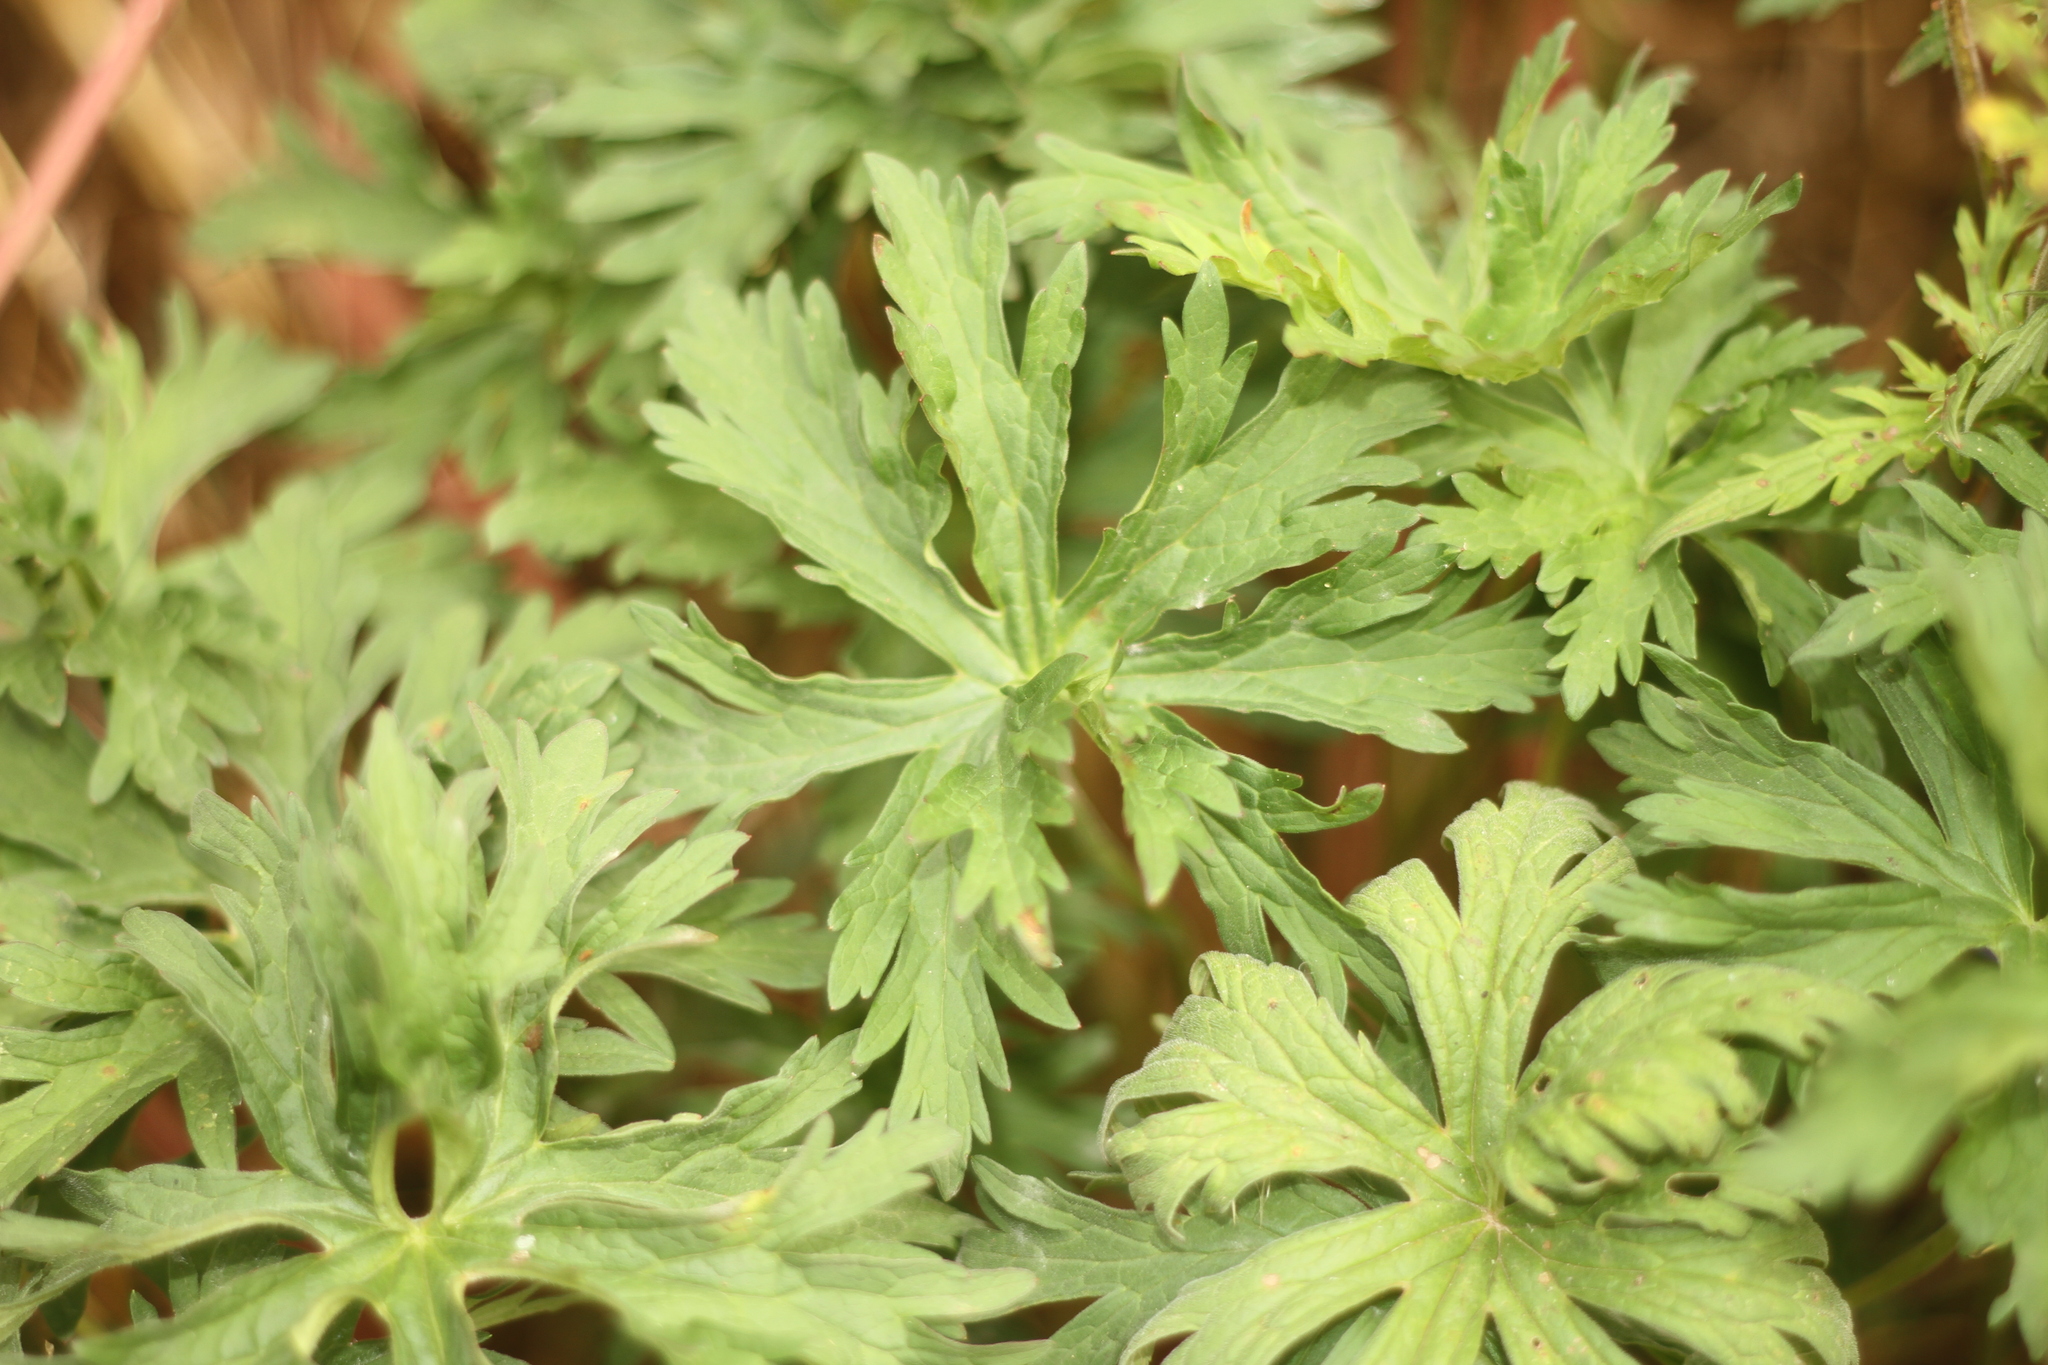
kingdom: Plantae
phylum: Tracheophyta
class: Magnoliopsida
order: Geraniales
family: Geraniaceae
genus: Geranium
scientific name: Geranium pratense
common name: Meadow crane's-bill
